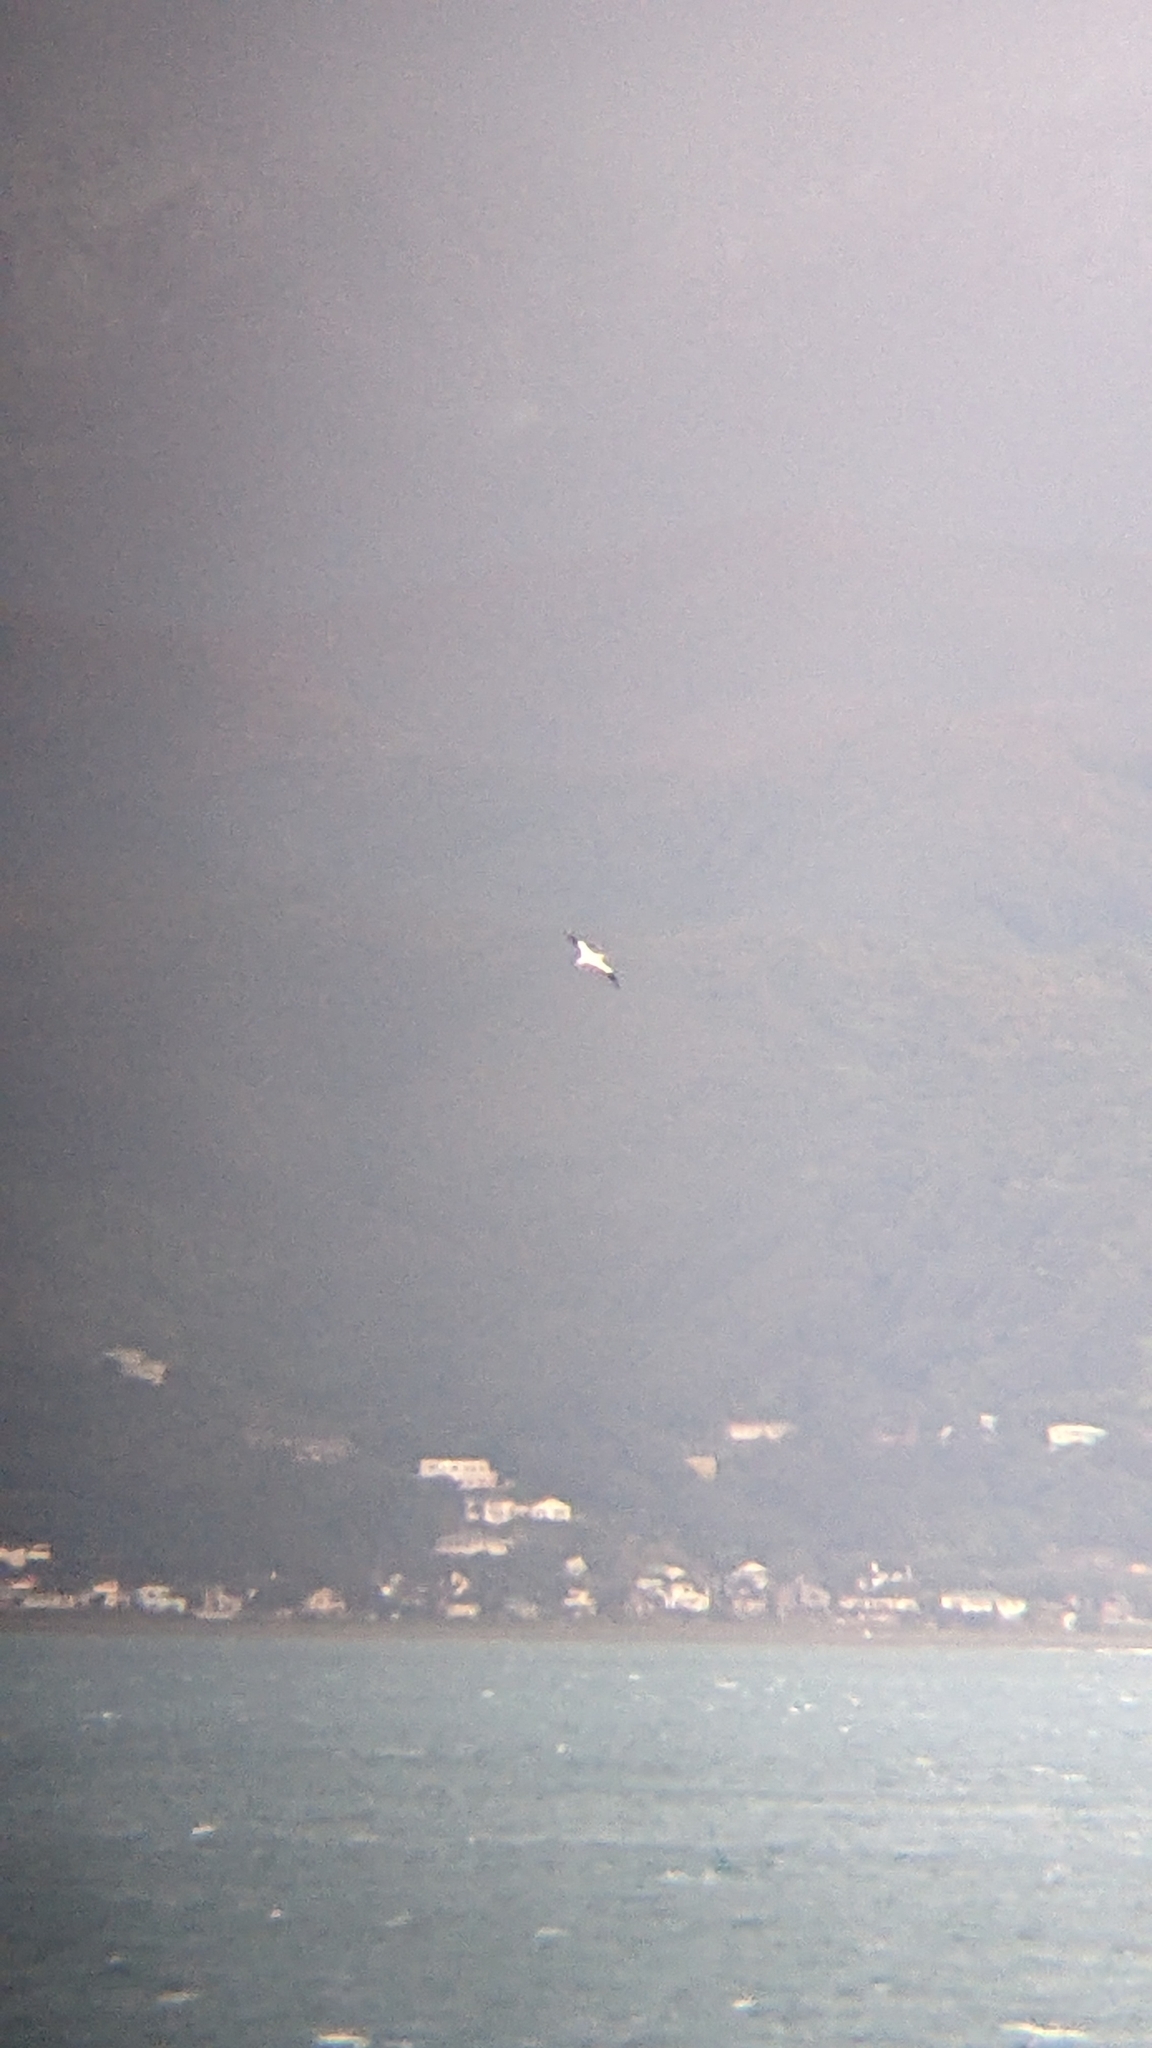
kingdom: Animalia
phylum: Chordata
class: Aves
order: Suliformes
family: Sulidae
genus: Morus
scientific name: Morus serrator
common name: Australasian gannet
